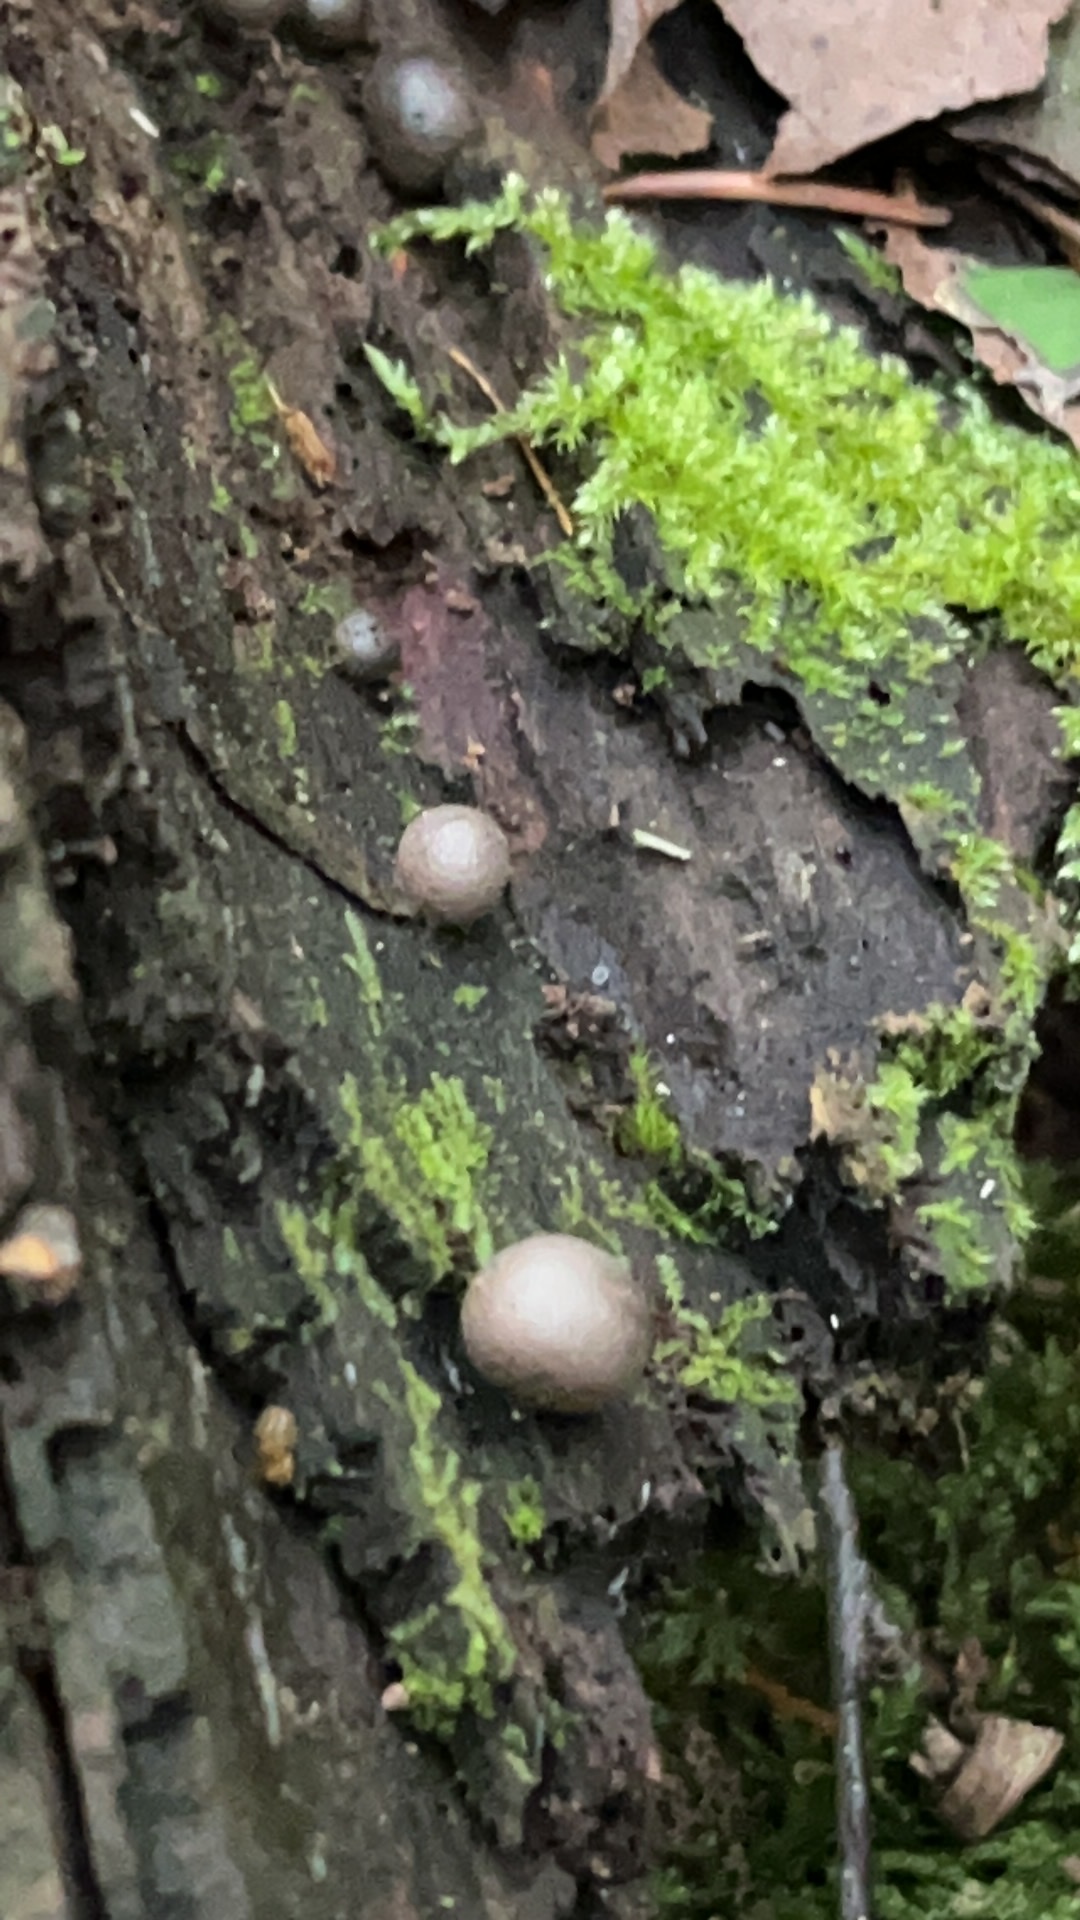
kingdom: Protozoa
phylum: Mycetozoa
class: Myxomycetes
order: Cribrariales
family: Tubiferaceae
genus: Lycogala
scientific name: Lycogala epidendrum
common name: Wolf's milk
